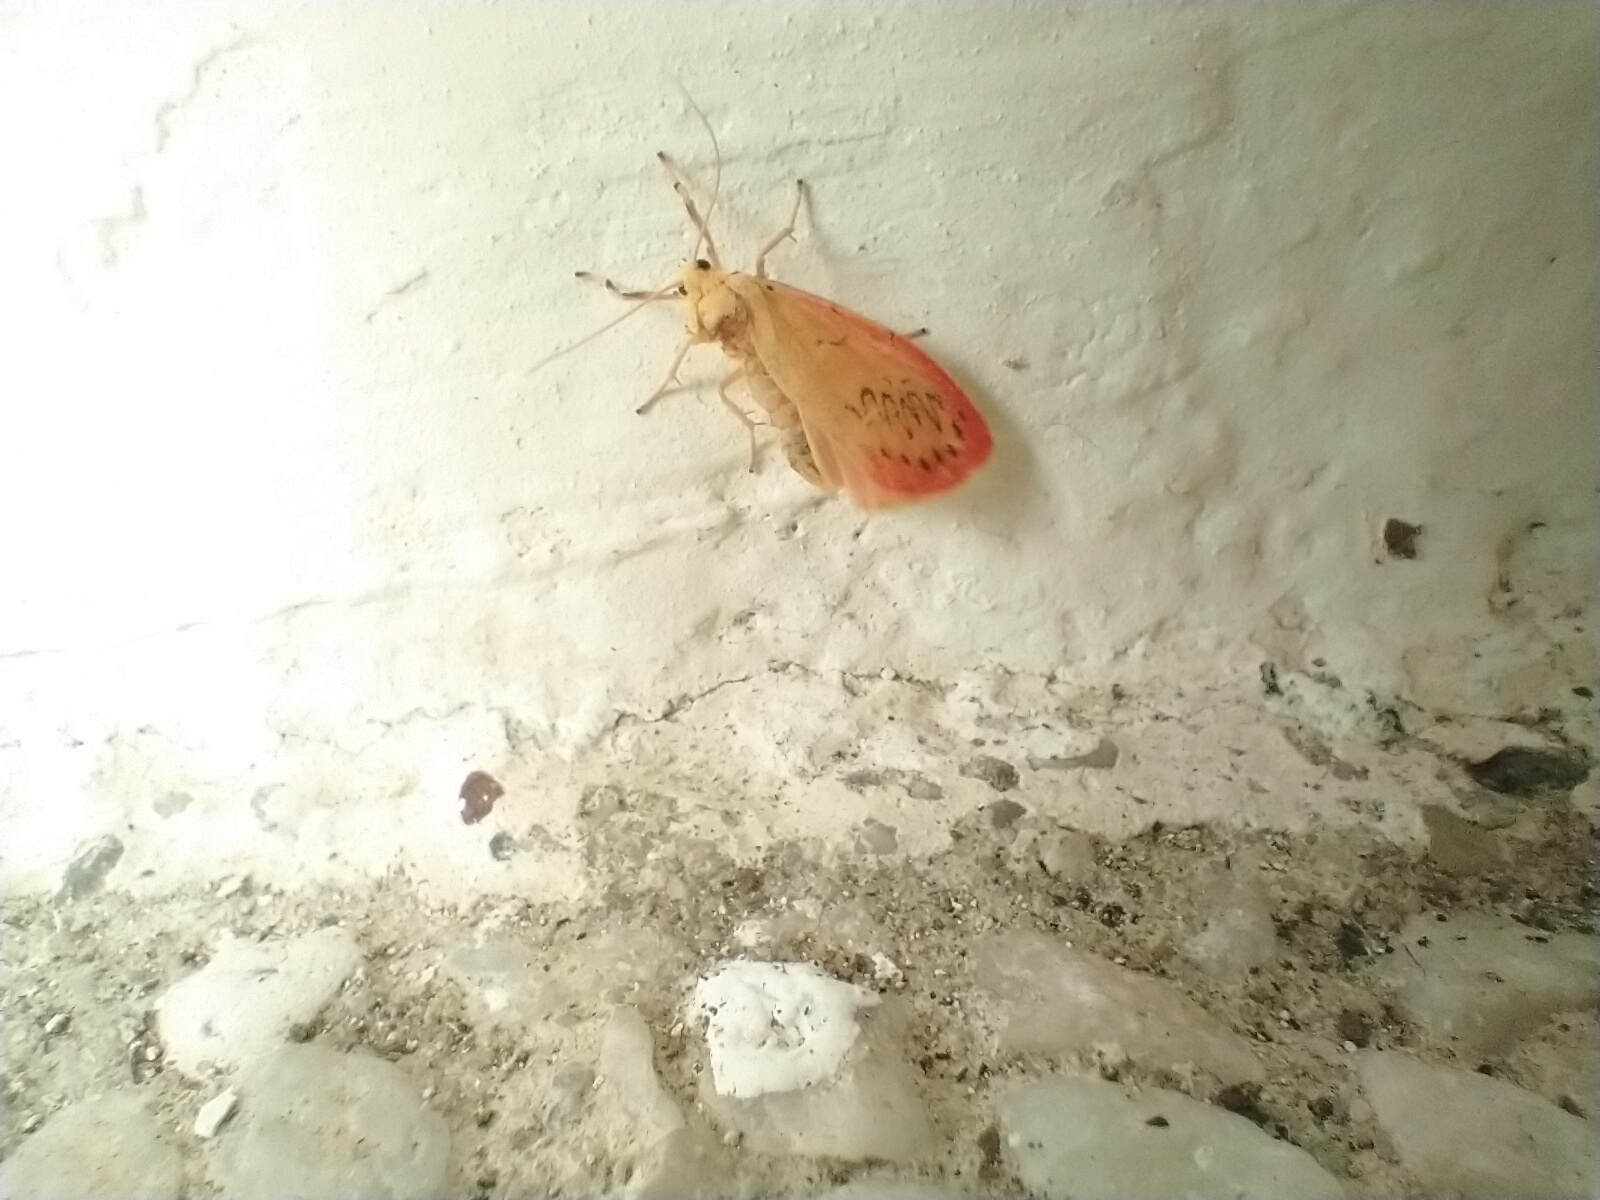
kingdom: Animalia
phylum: Arthropoda
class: Insecta
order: Lepidoptera
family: Erebidae
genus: Miltochrista
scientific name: Miltochrista miniata
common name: Rosy footman
